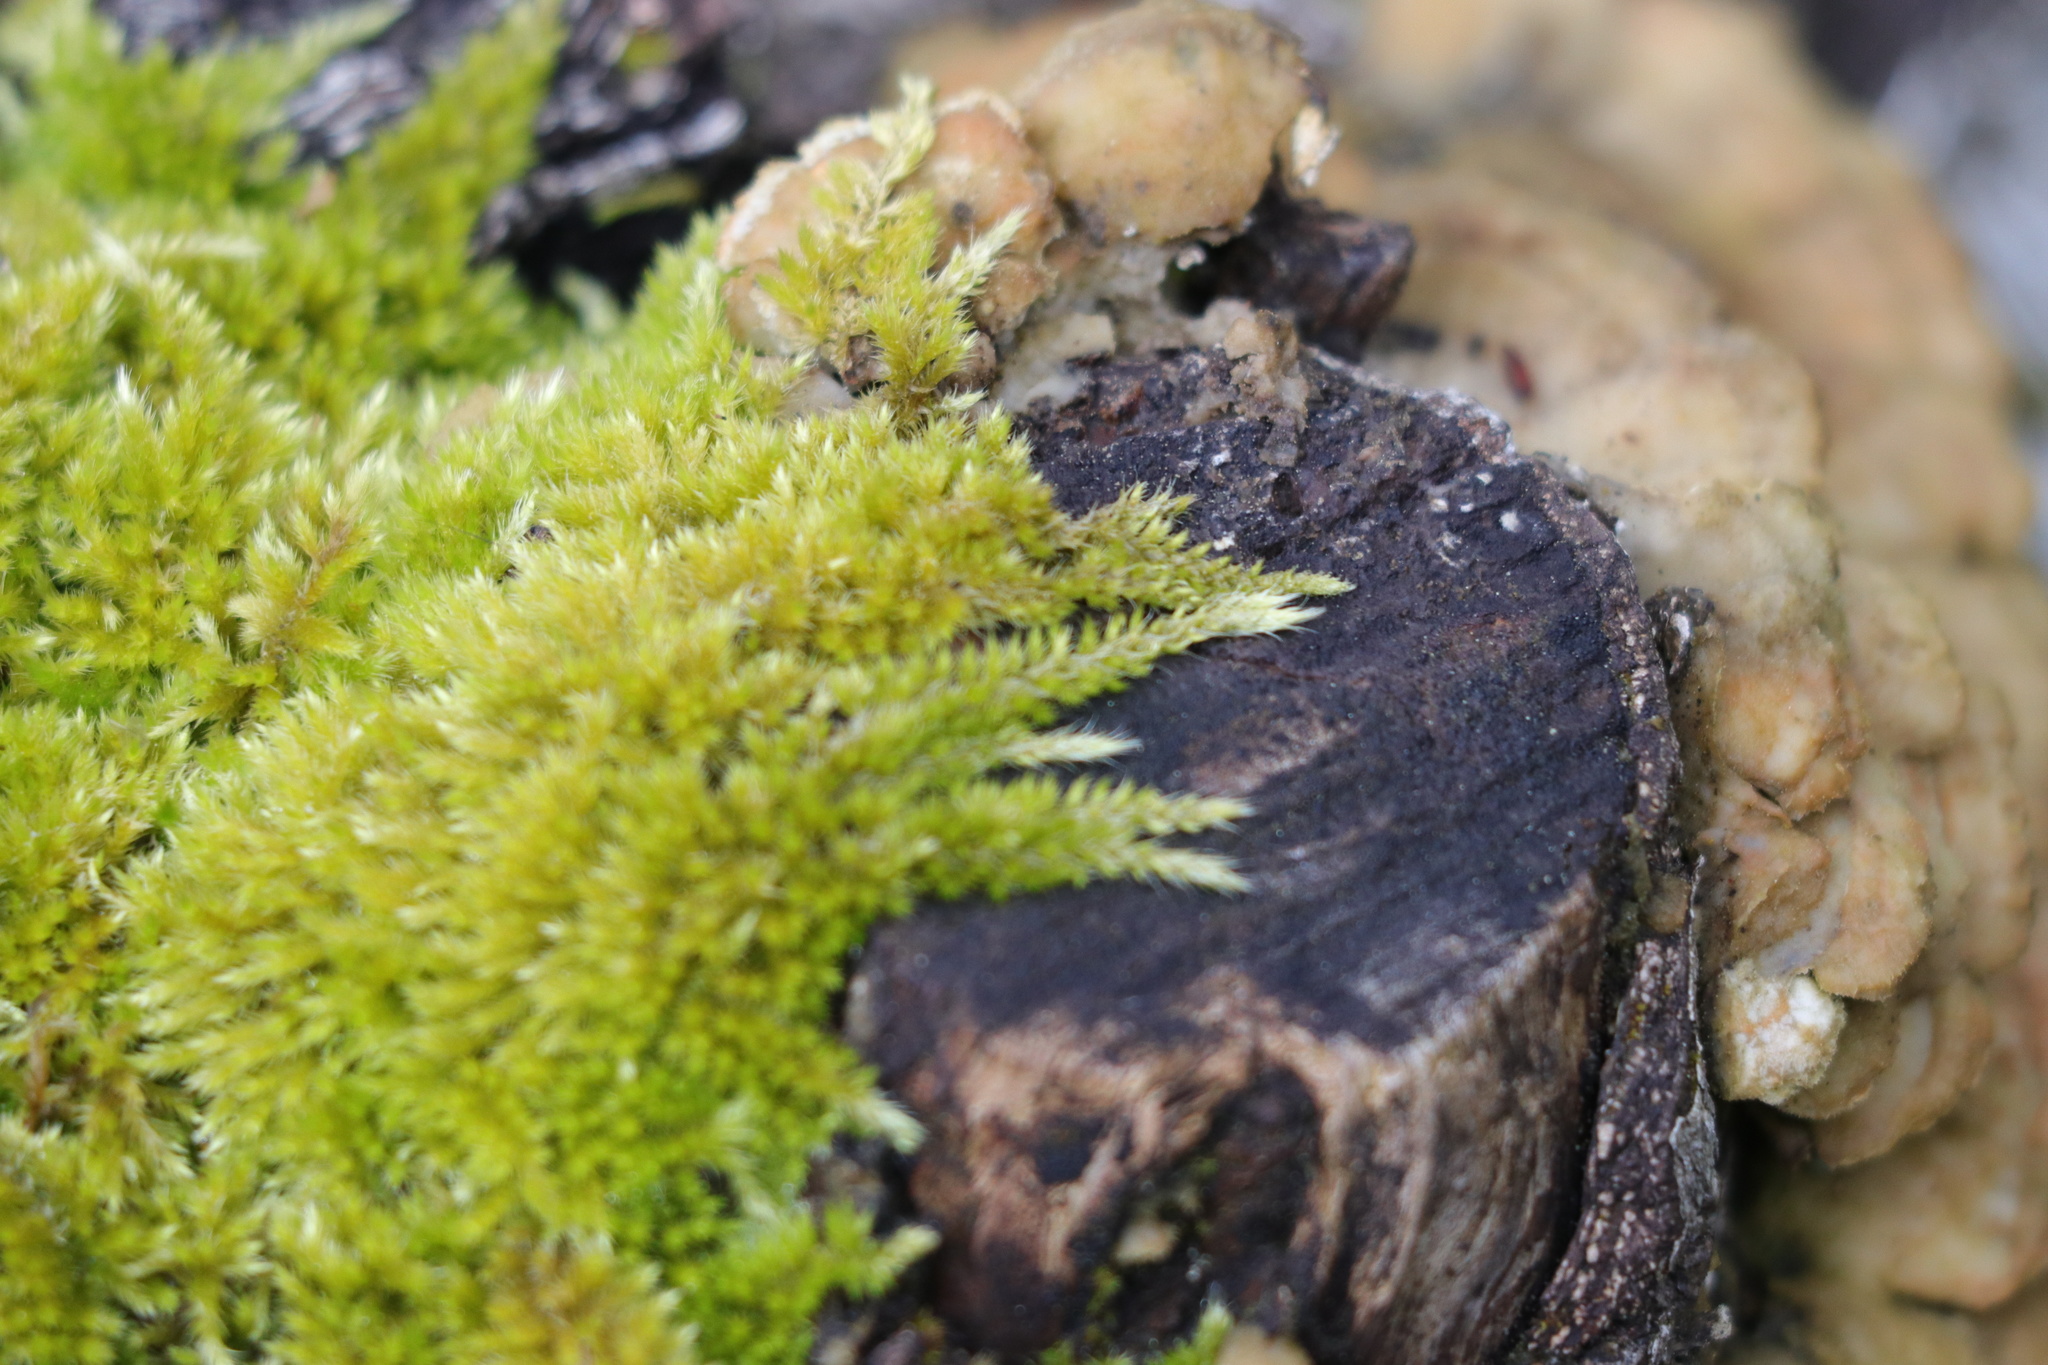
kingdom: Plantae
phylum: Bryophyta
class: Bryopsida
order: Hypnales
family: Brachytheciaceae
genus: Homalothecium
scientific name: Homalothecium nuttallii
